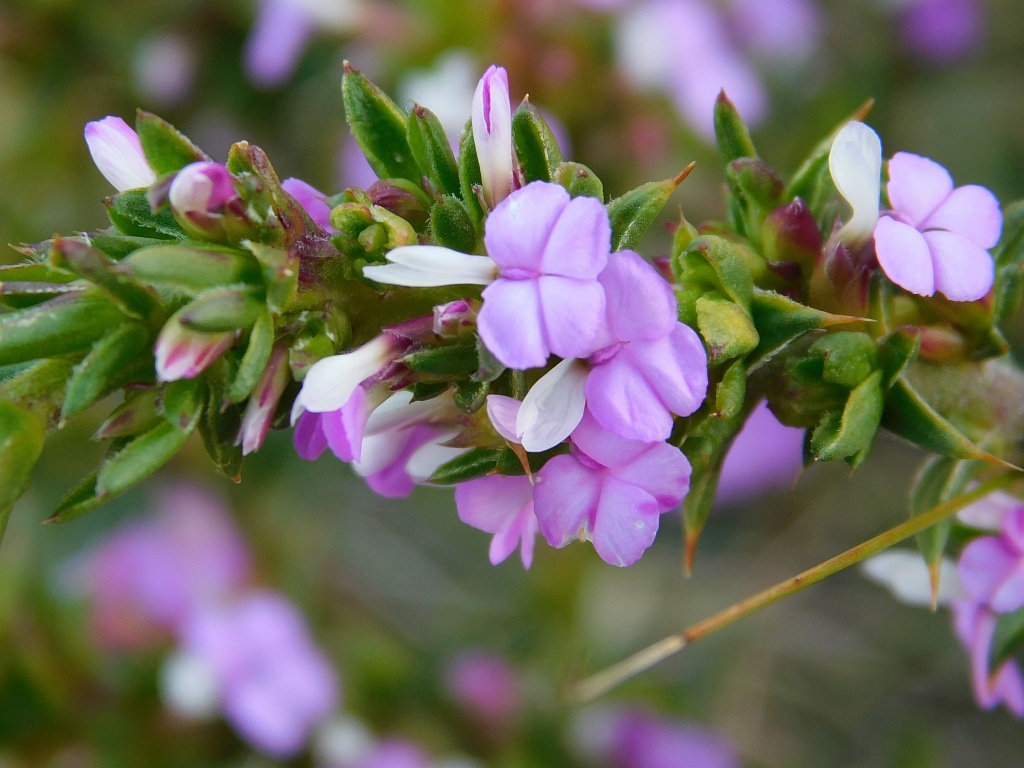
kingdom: Plantae
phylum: Tracheophyta
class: Magnoliopsida
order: Fabales
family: Polygalaceae
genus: Muraltia
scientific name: Muraltia heisteria
